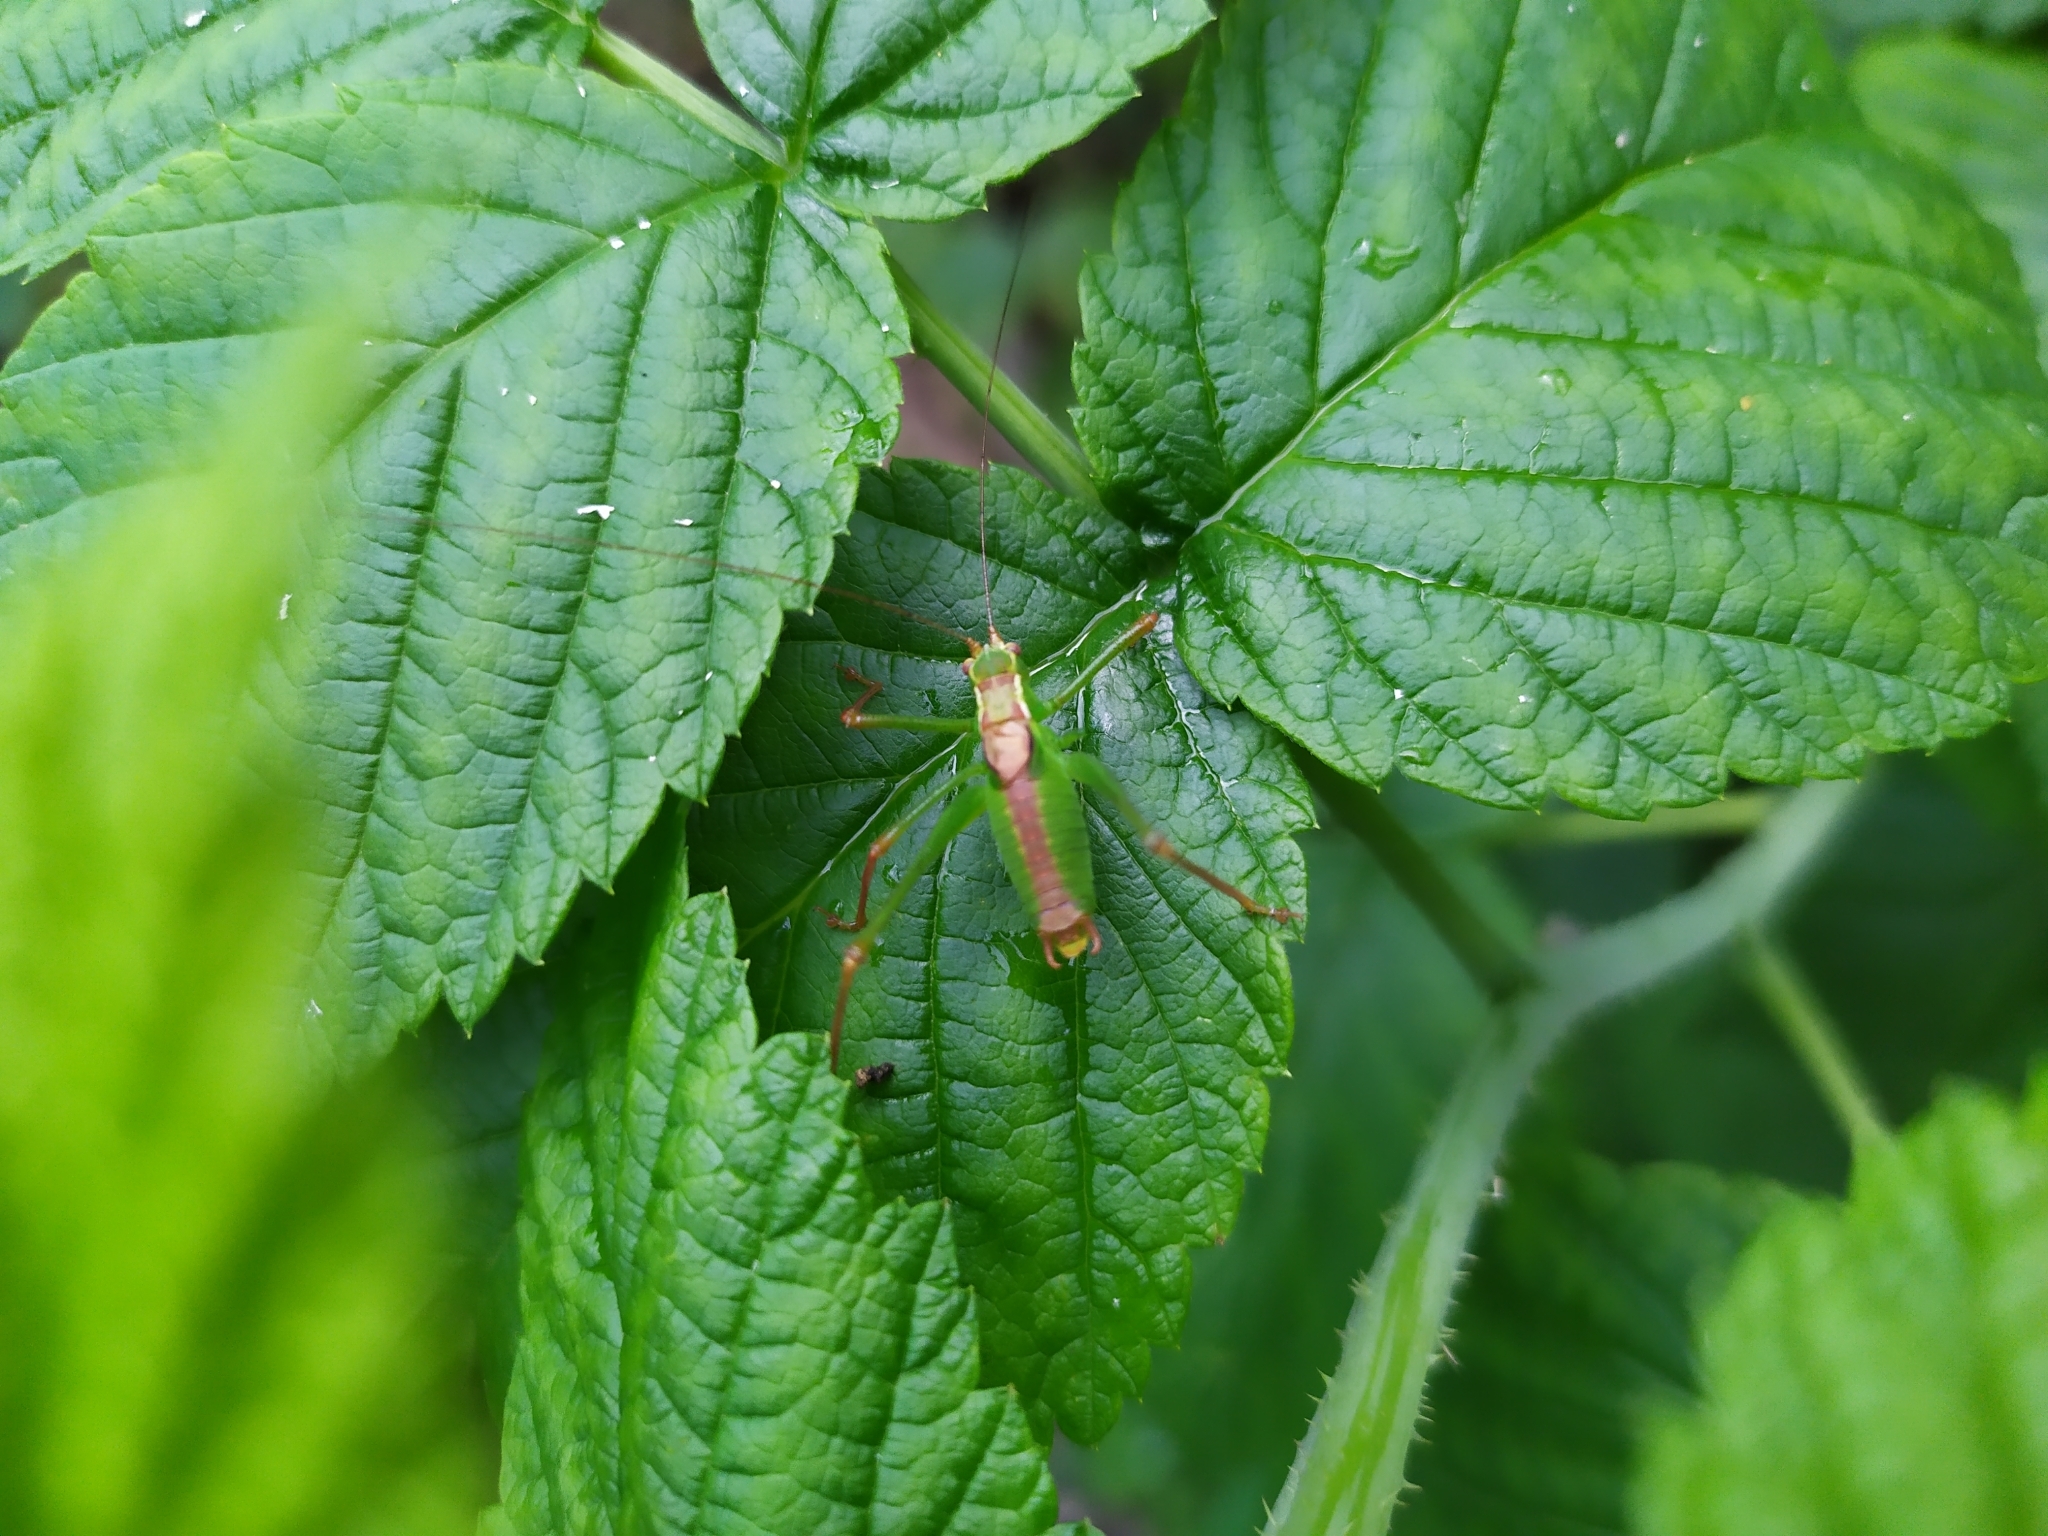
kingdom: Animalia
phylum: Arthropoda
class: Insecta
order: Orthoptera
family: Tettigoniidae
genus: Leptophyes
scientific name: Leptophyes punctatissima
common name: Speckled bush-cricket
